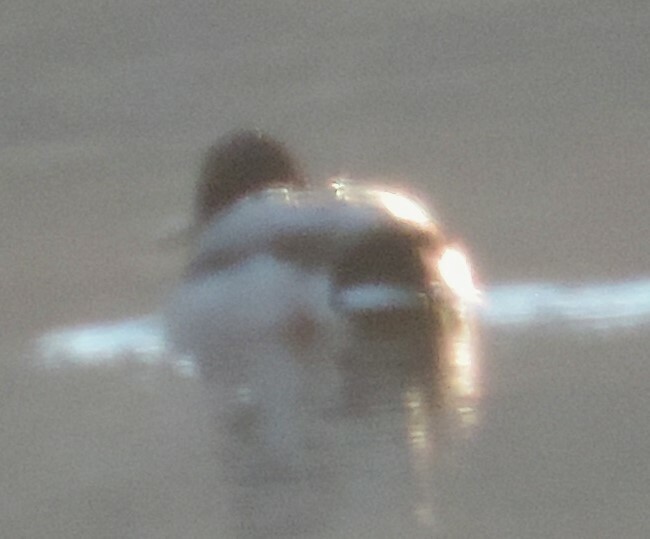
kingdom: Animalia
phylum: Chordata
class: Aves
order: Anseriformes
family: Anatidae
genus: Anas
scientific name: Anas platyrhynchos
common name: Mallard
